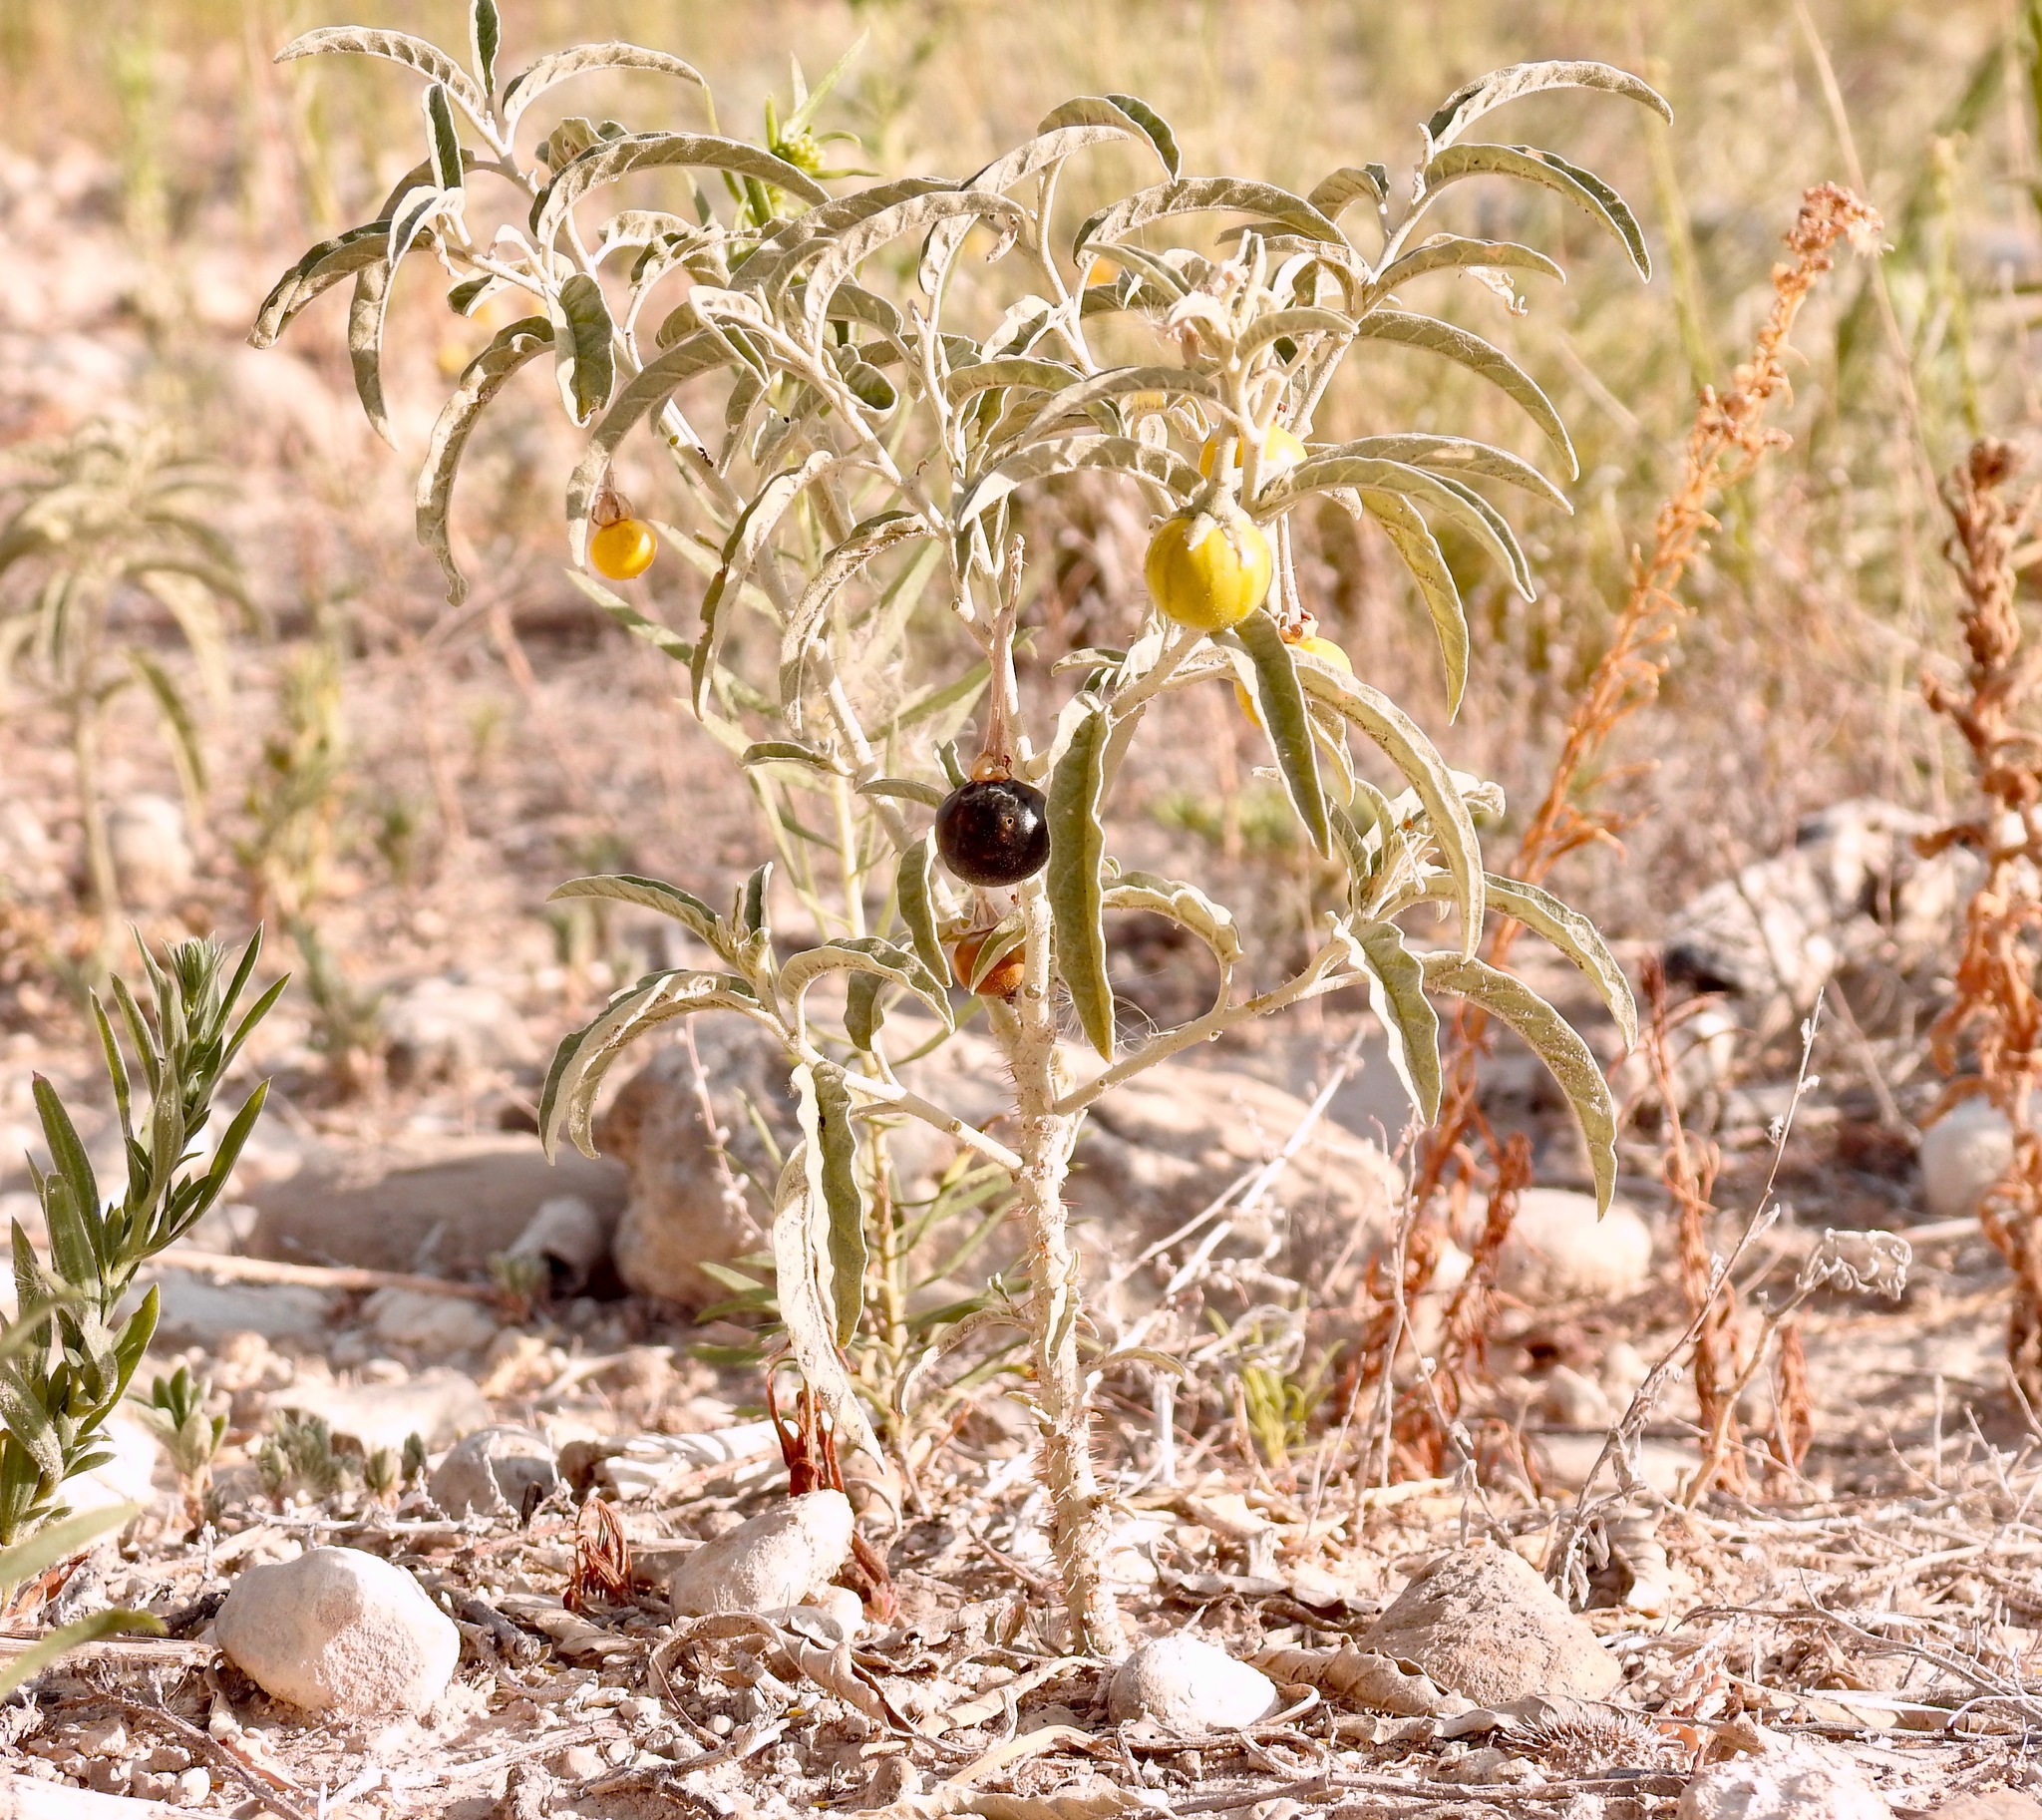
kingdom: Plantae
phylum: Tracheophyta
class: Magnoliopsida
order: Solanales
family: Solanaceae
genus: Solanum
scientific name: Solanum elaeagnifolium
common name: Silverleaf nightshade
